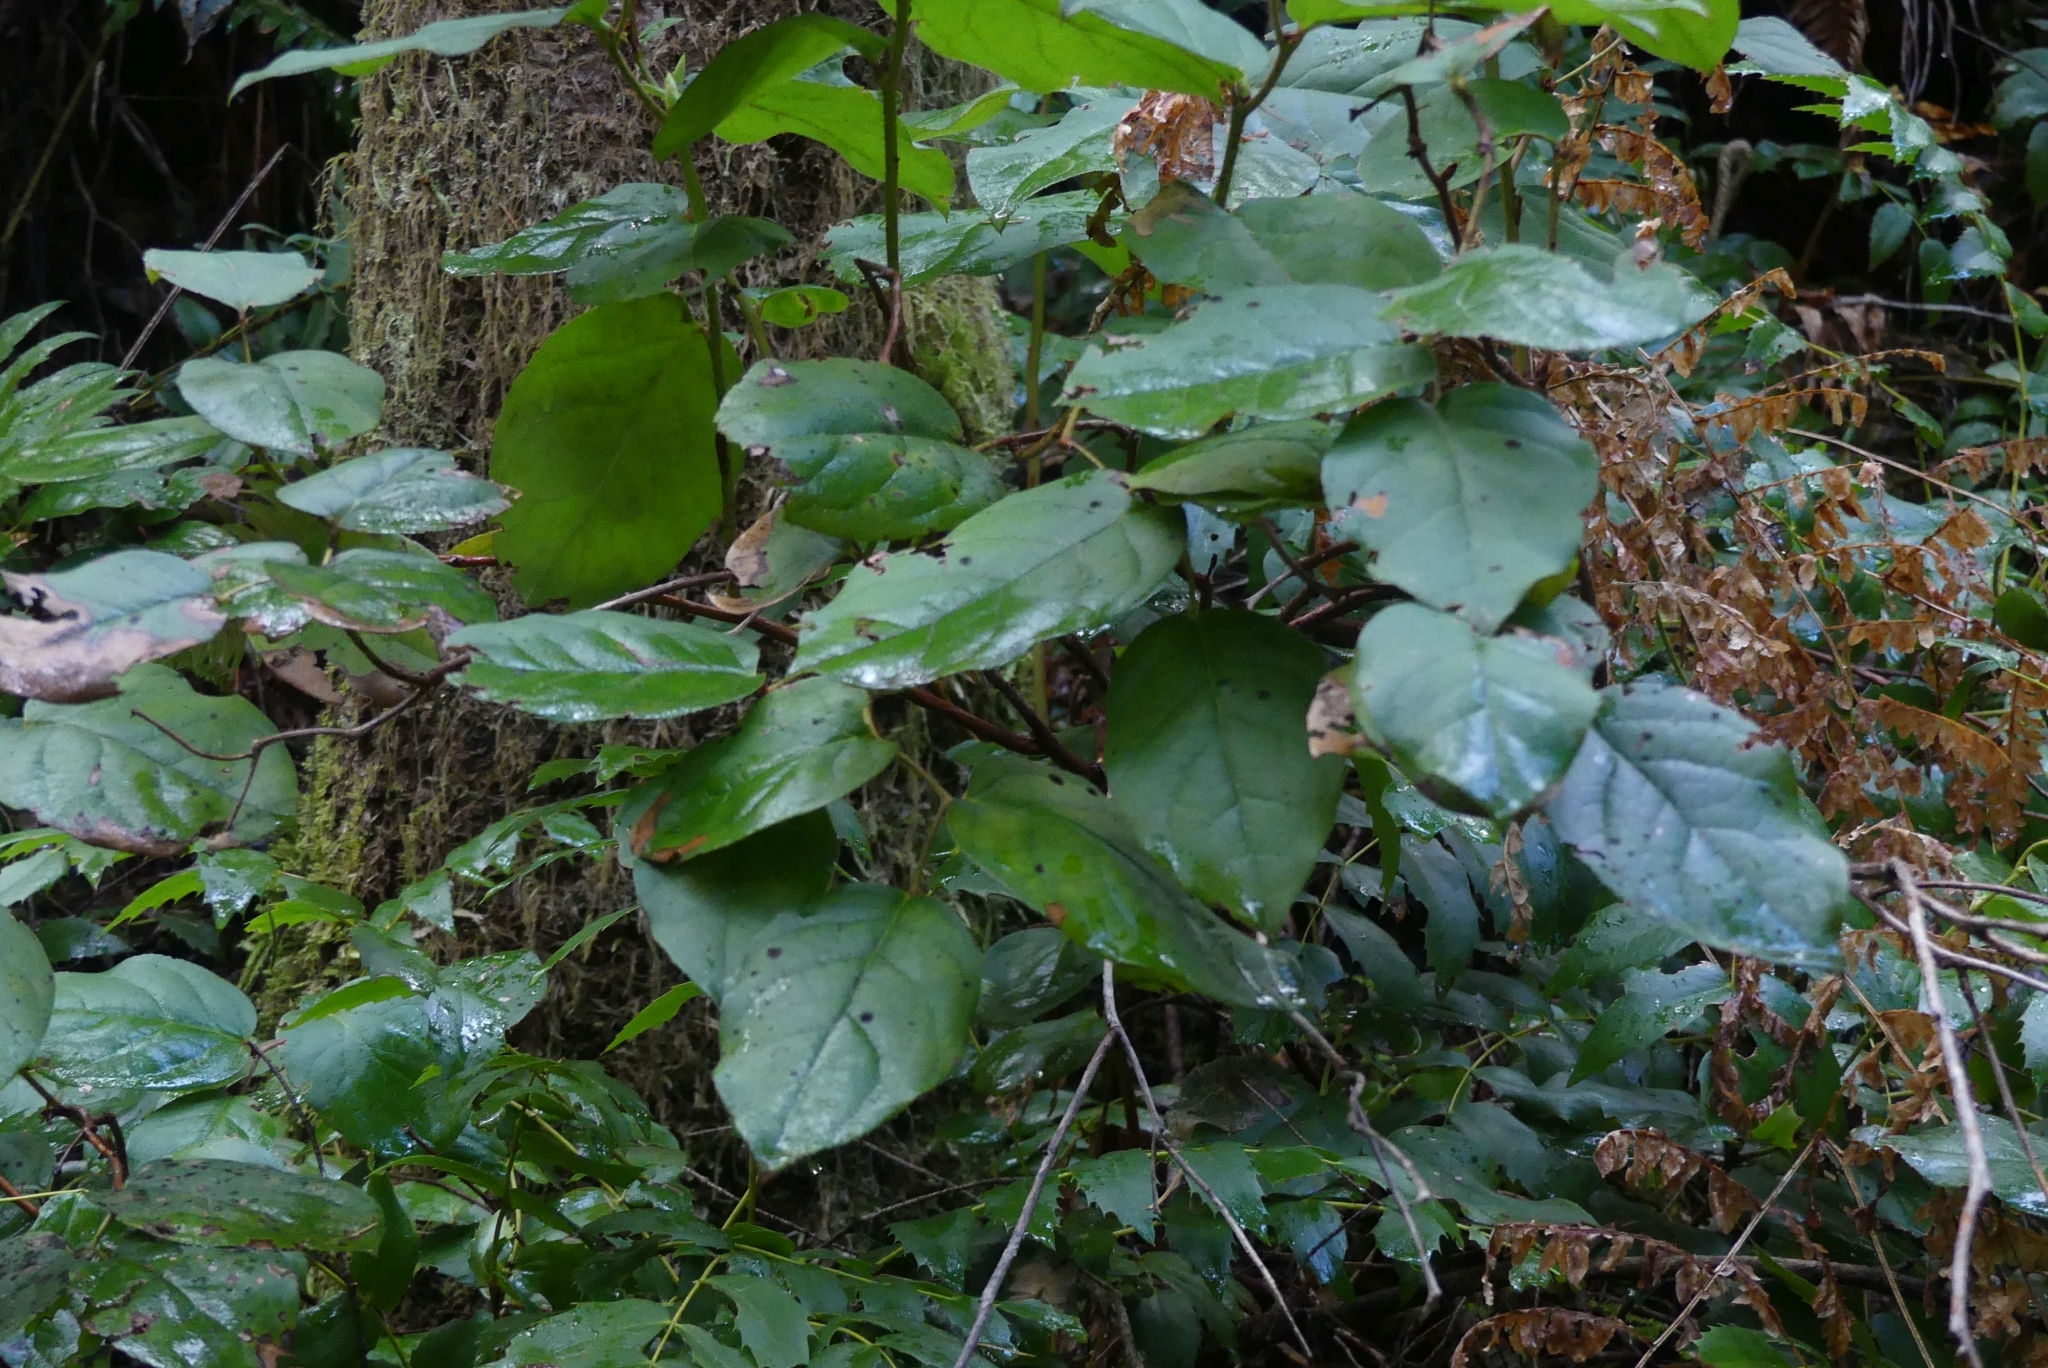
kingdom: Plantae
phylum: Tracheophyta
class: Magnoliopsida
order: Ericales
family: Ericaceae
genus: Gaultheria
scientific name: Gaultheria shallon
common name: Shallon
